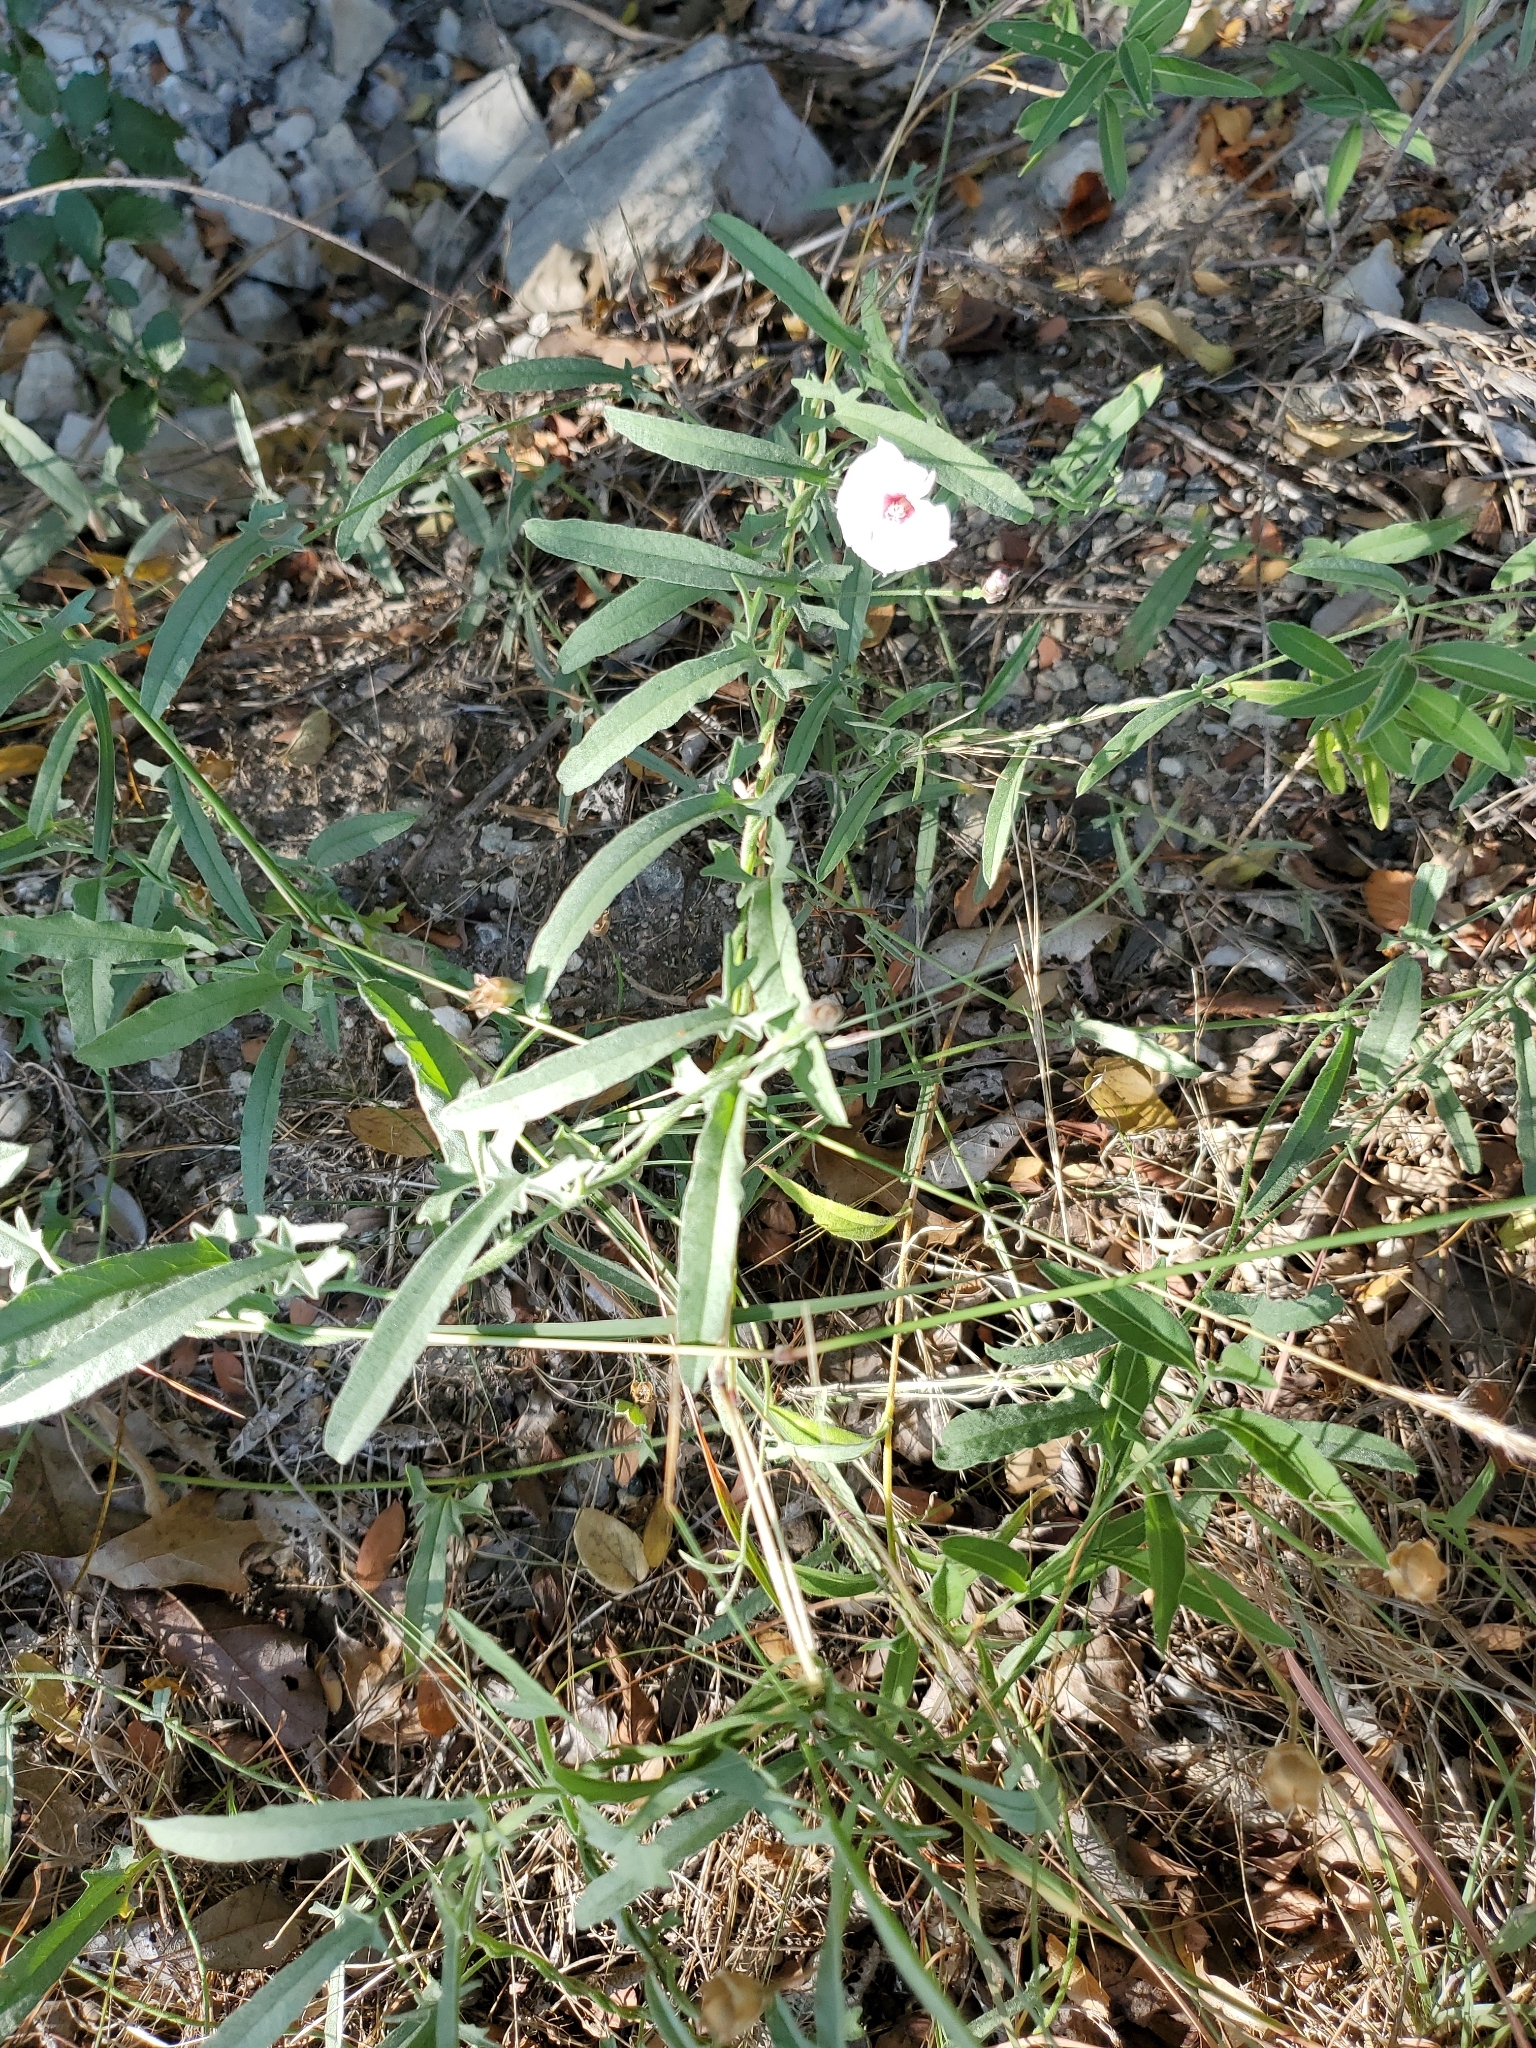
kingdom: Plantae
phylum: Tracheophyta
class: Magnoliopsida
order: Solanales
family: Convolvulaceae
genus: Convolvulus
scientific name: Convolvulus equitans
